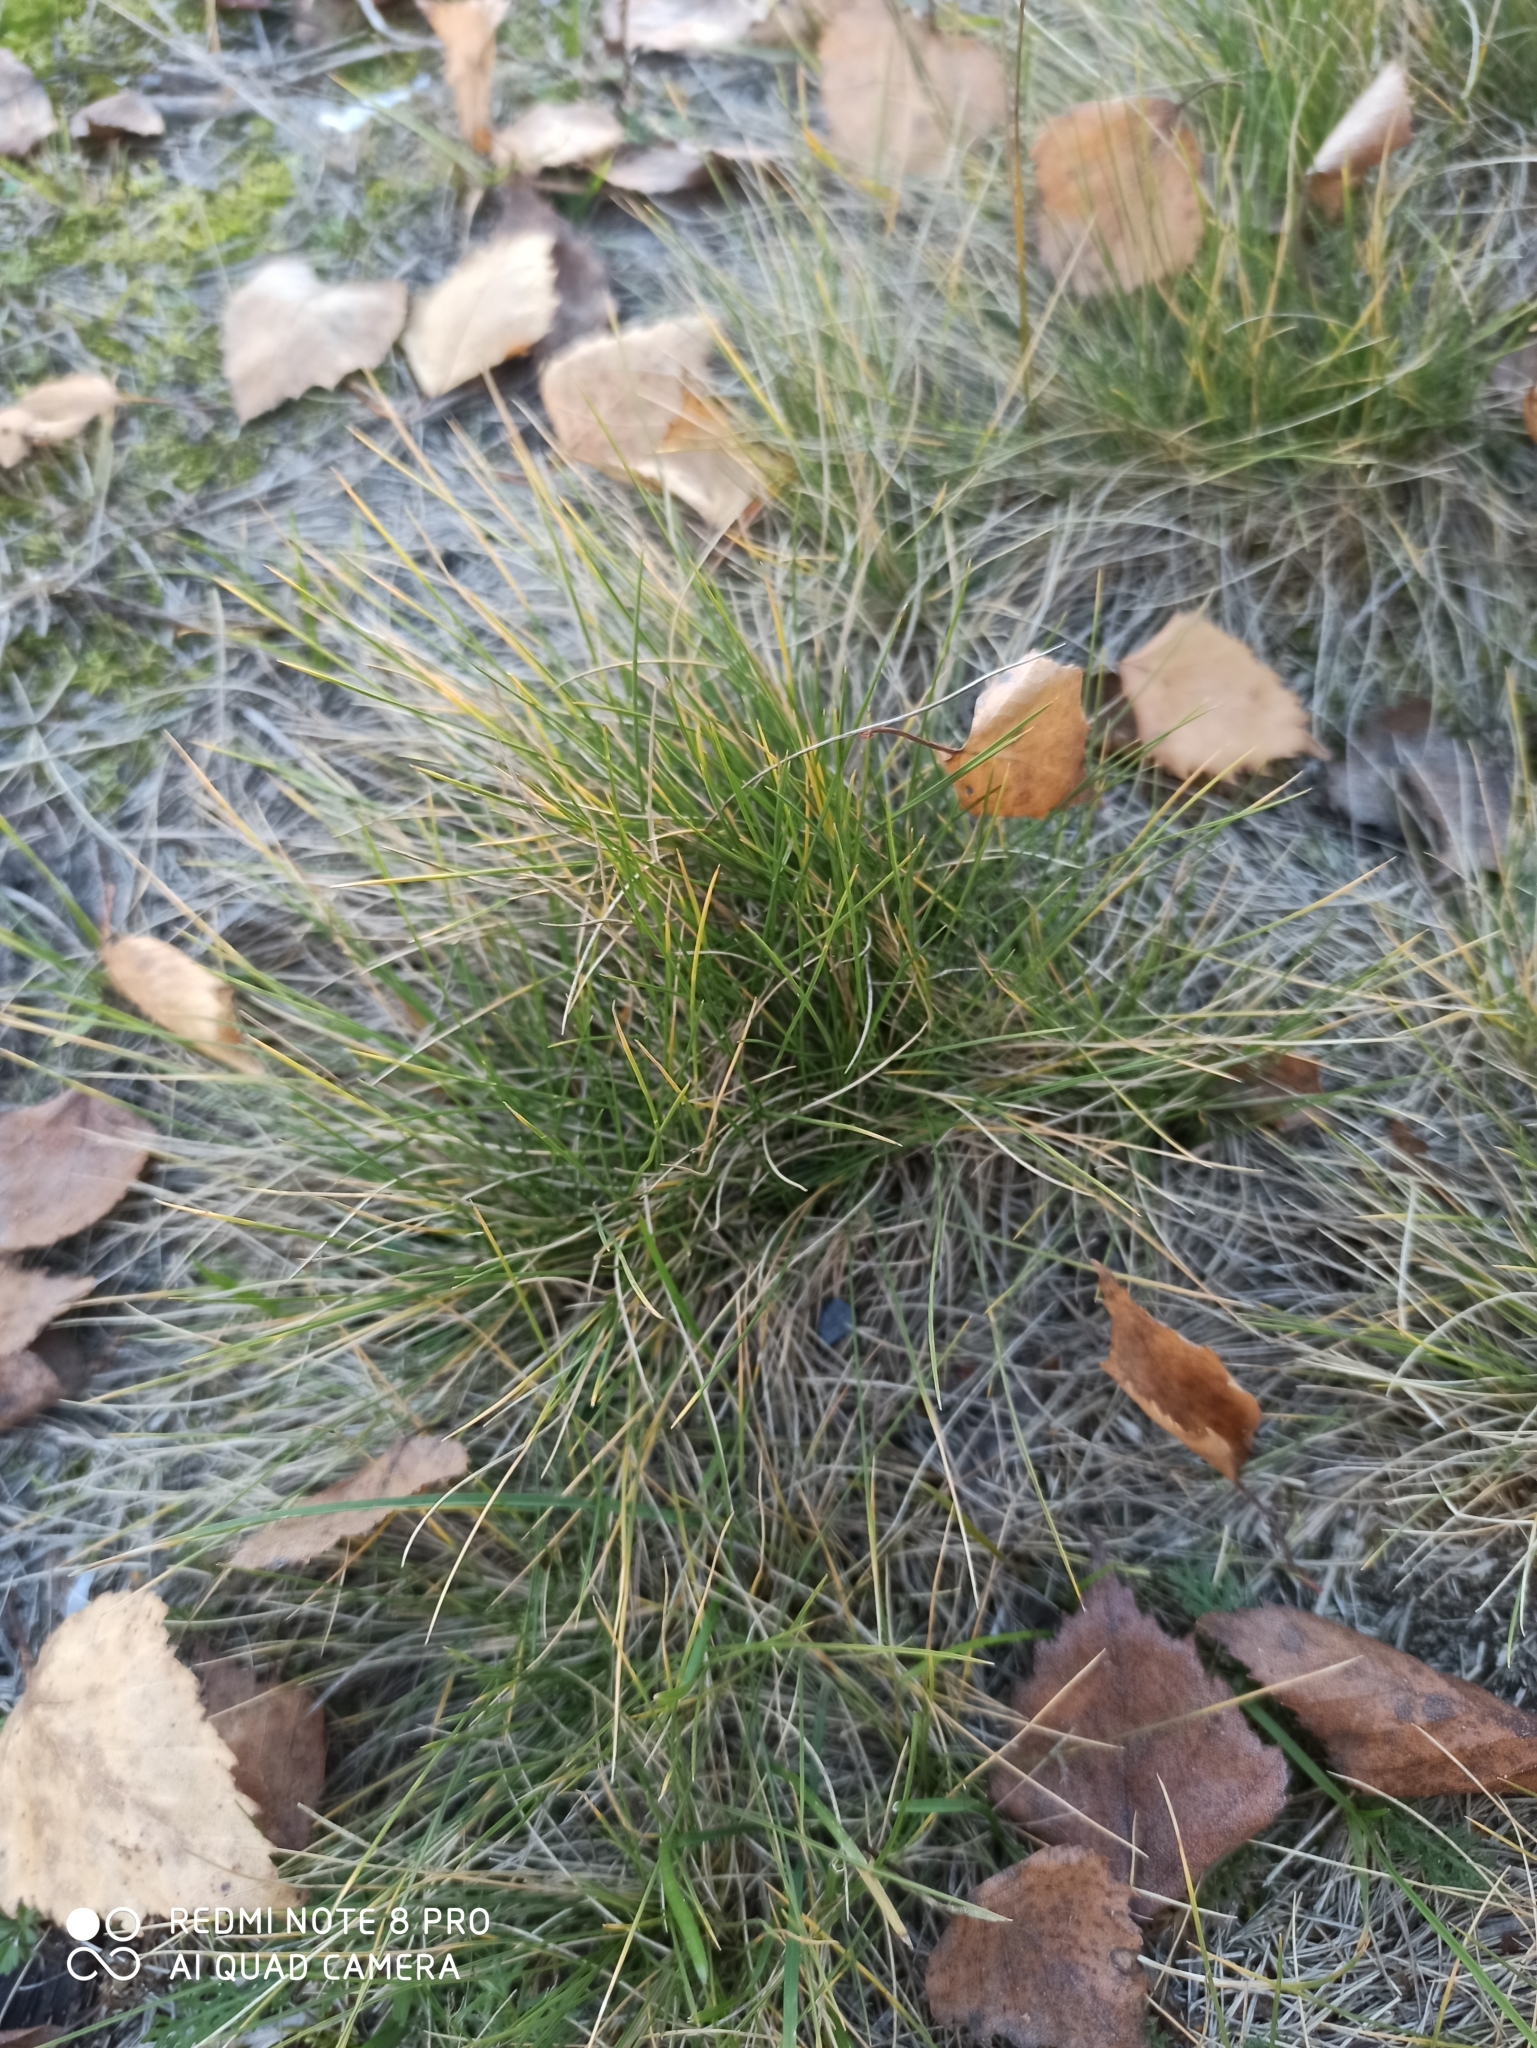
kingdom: Plantae
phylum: Tracheophyta
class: Liliopsida
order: Poales
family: Poaceae
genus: Nardus
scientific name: Nardus stricta
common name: Mat-grass
